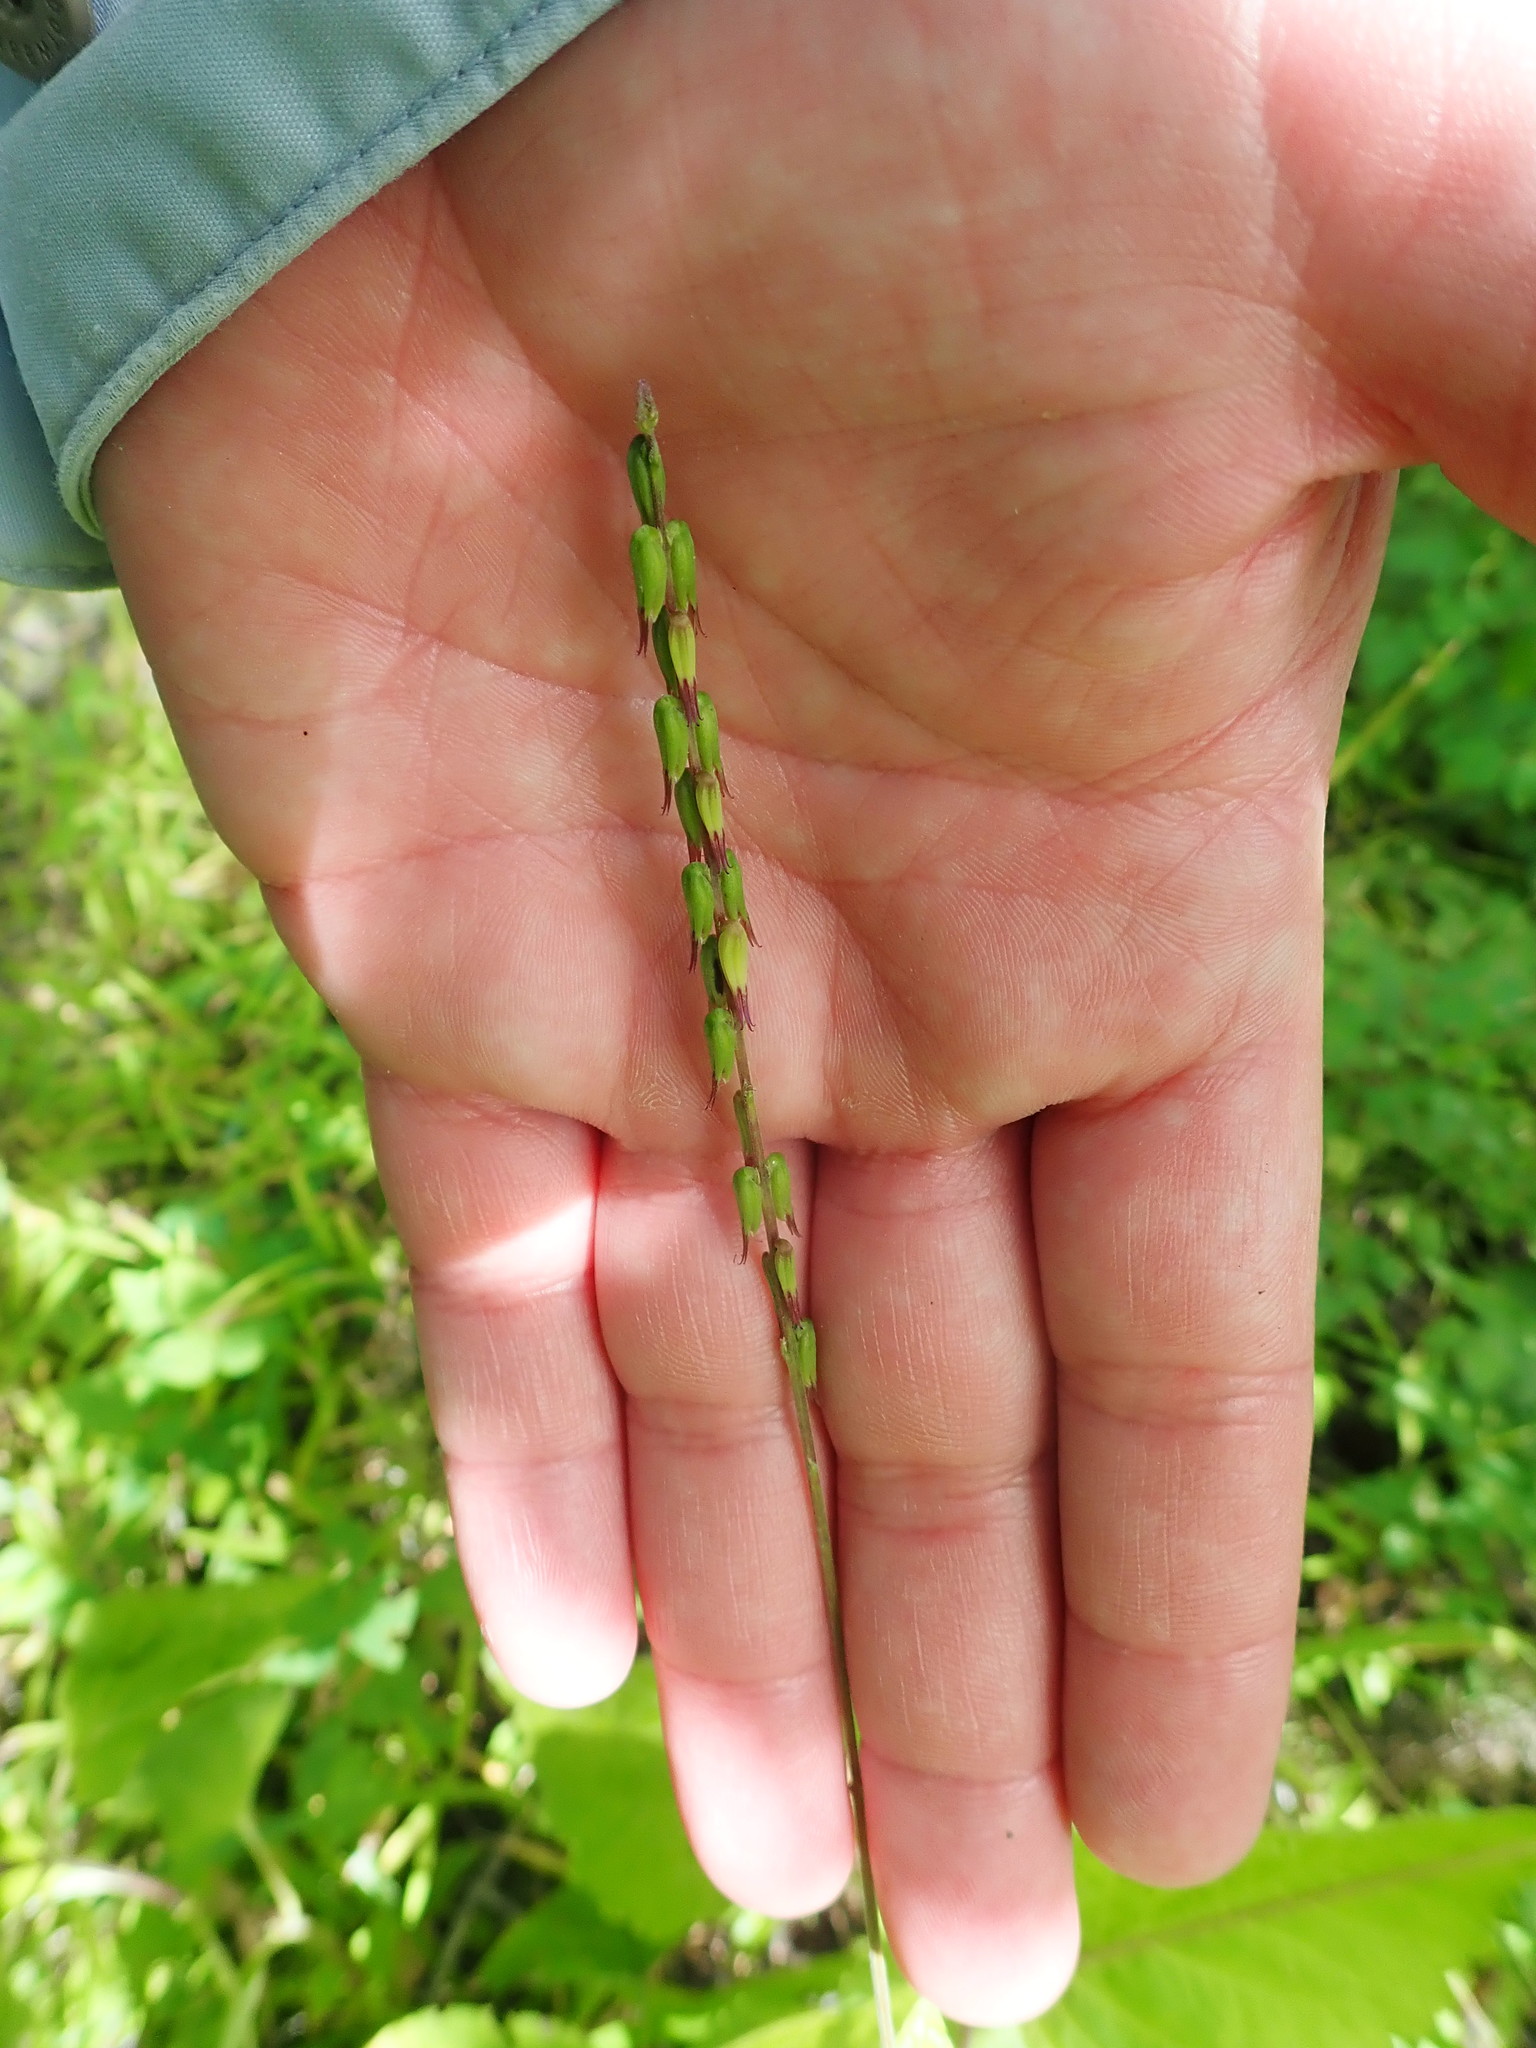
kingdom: Plantae
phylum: Tracheophyta
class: Magnoliopsida
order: Lamiales
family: Phrymaceae
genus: Phryma
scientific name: Phryma leptostachya
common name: American lopseed
